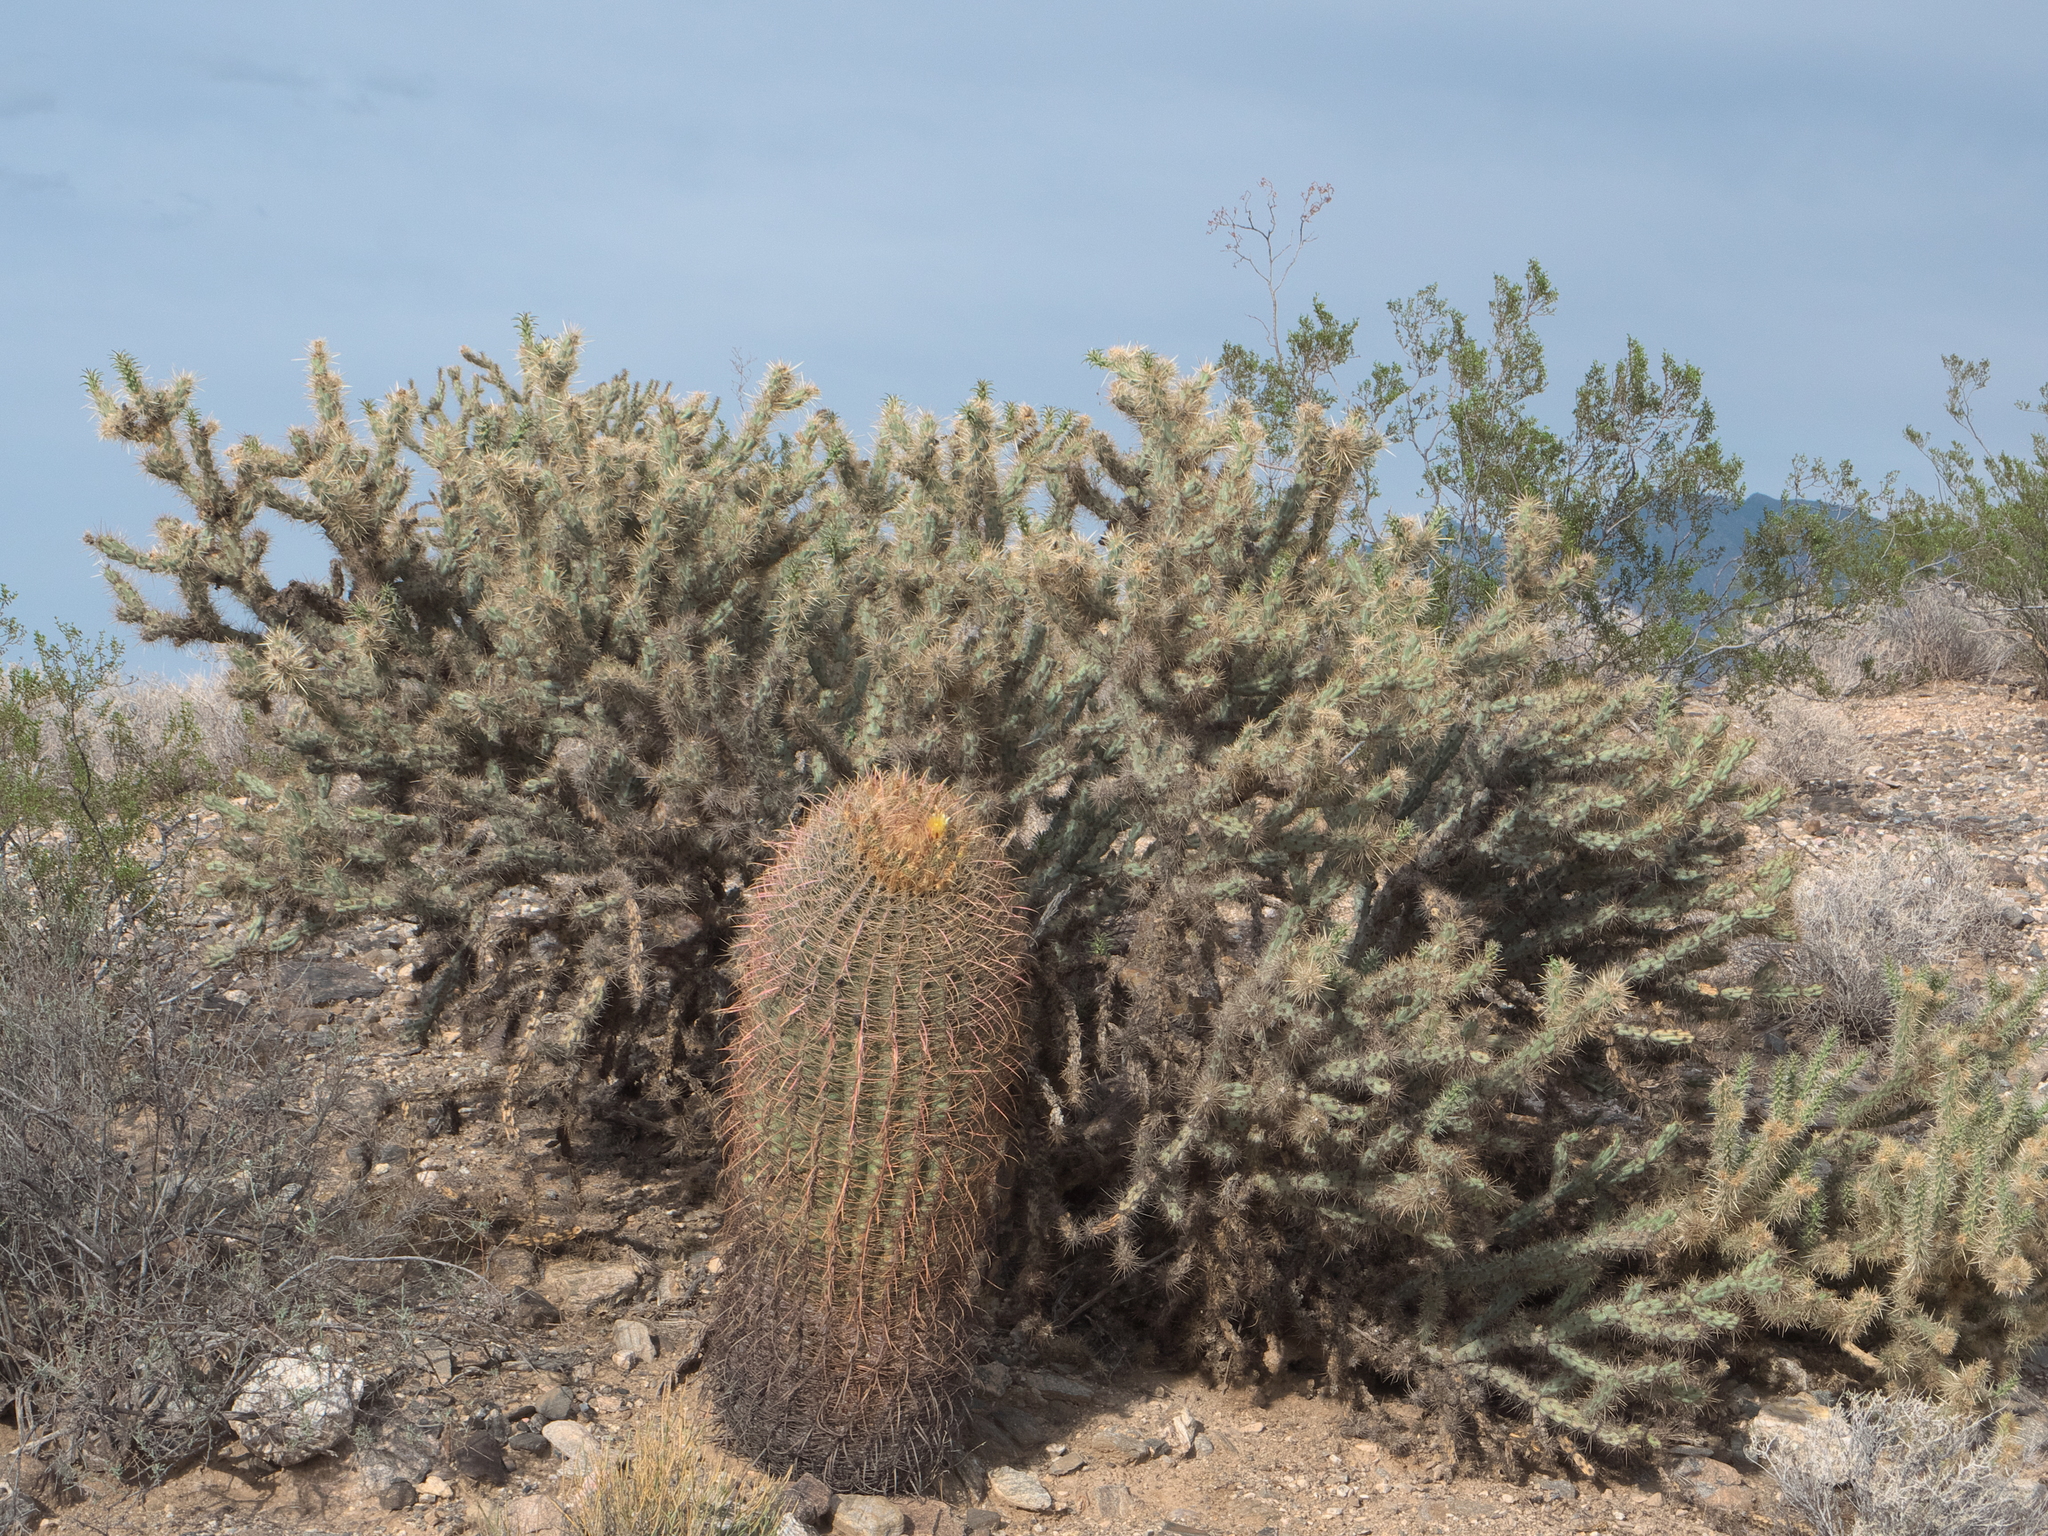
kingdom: Plantae
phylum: Tracheophyta
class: Magnoliopsida
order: Caryophyllales
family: Cactaceae
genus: Ferocactus
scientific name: Ferocactus cylindraceus
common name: California barrel cactus
